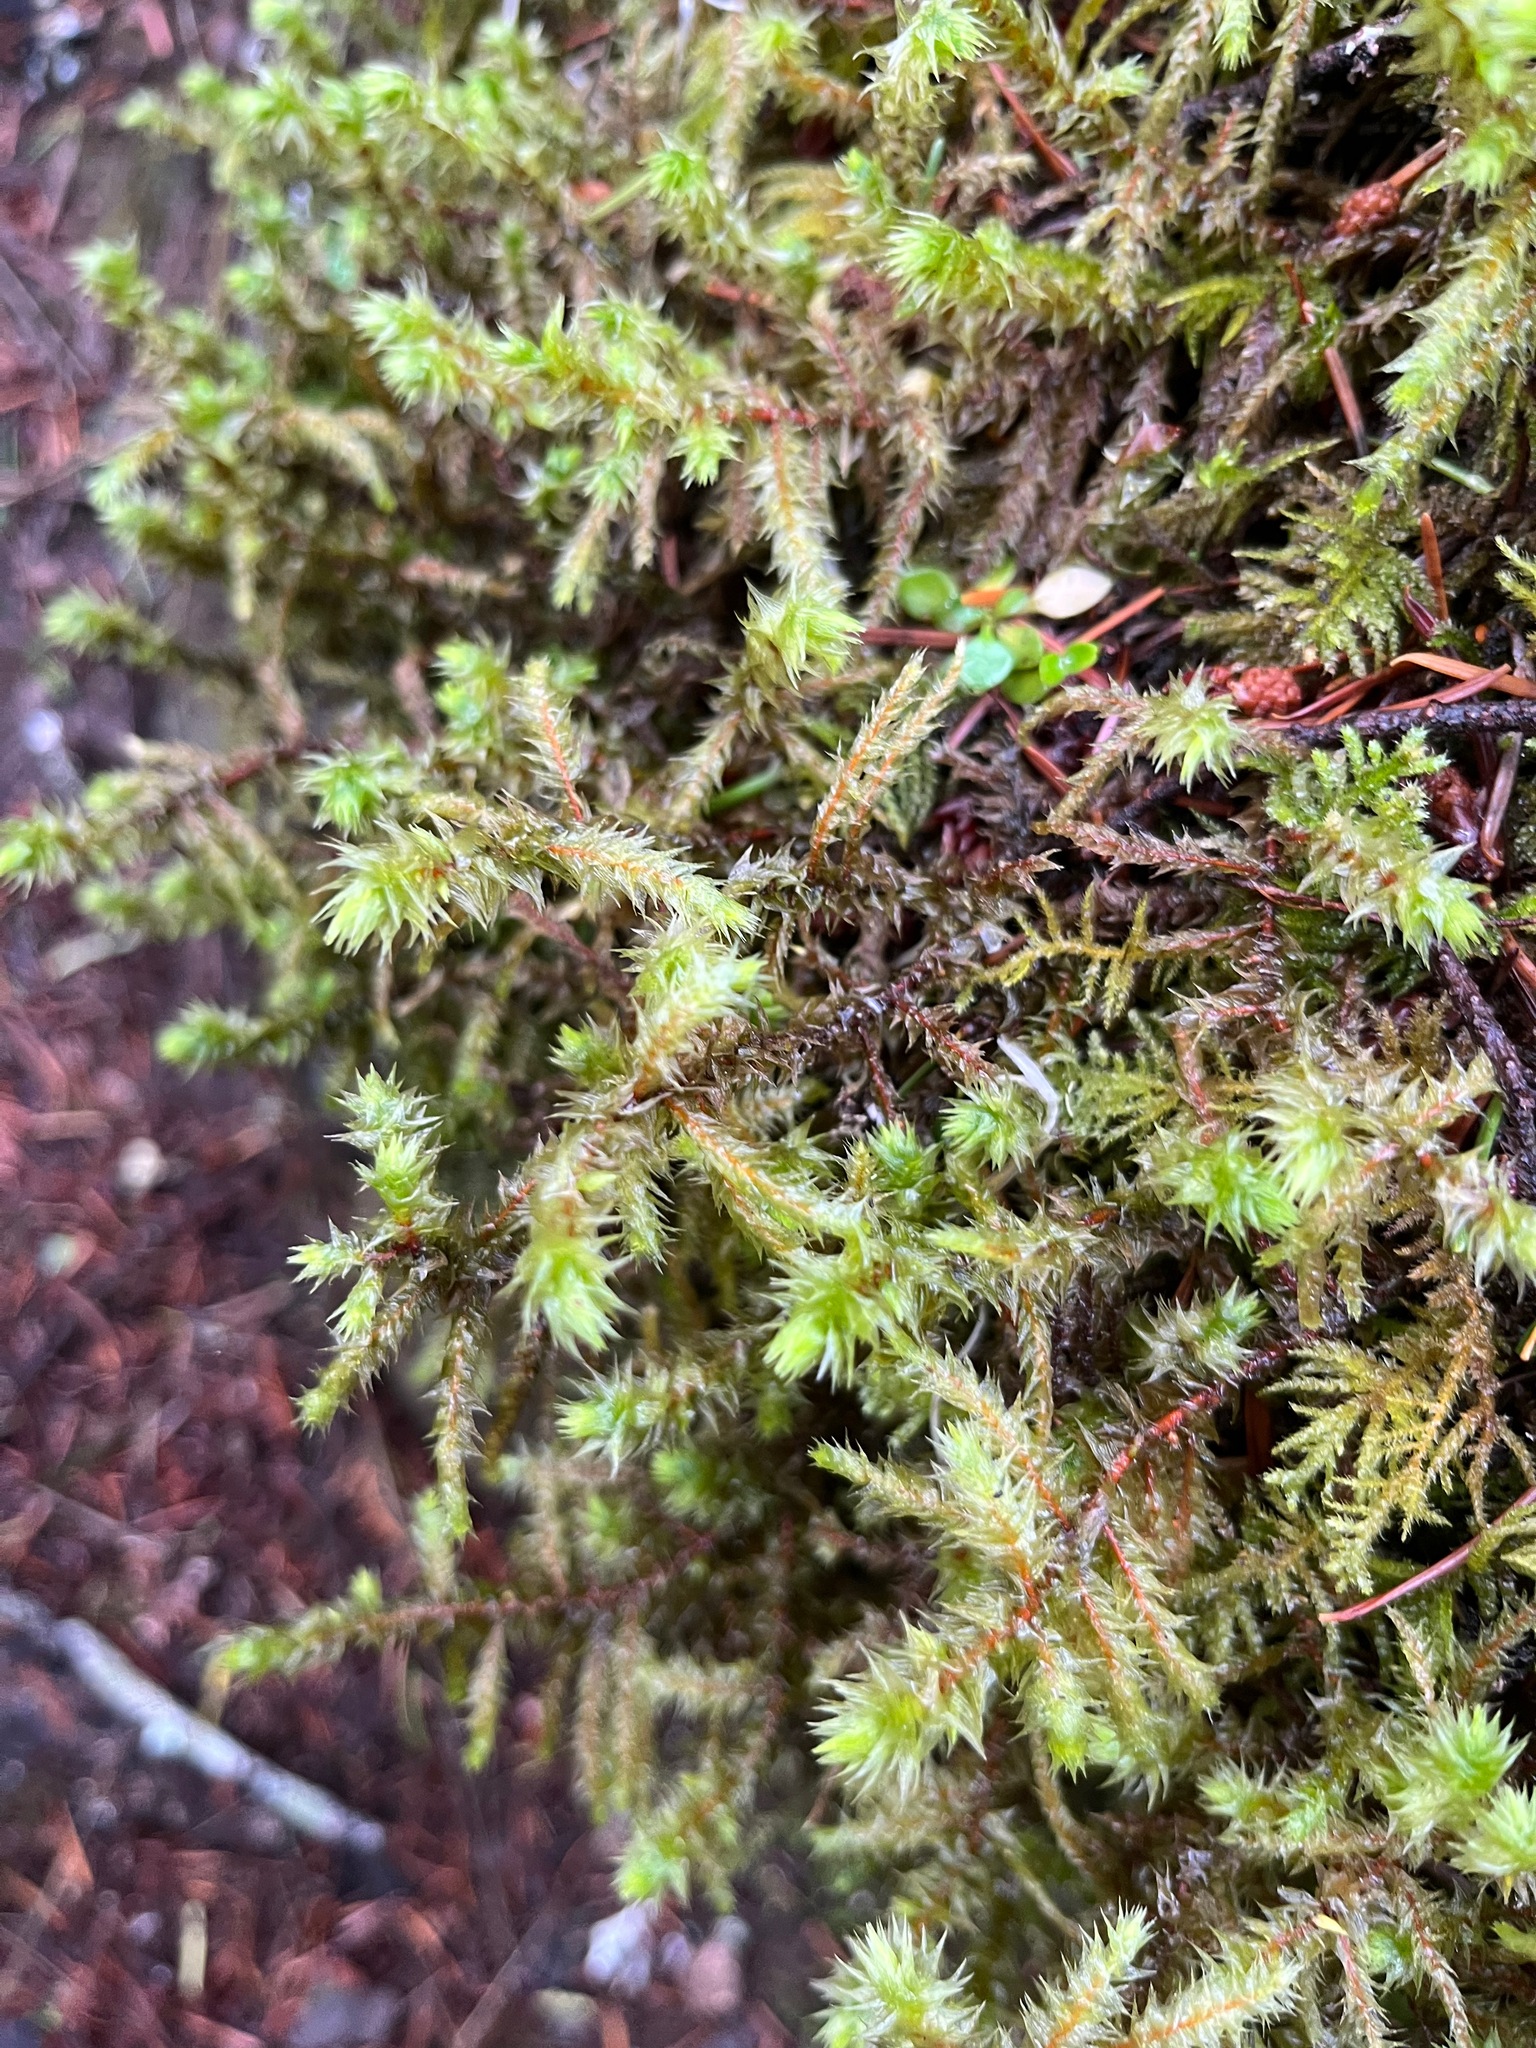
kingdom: Plantae
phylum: Bryophyta
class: Bryopsida
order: Hypnales
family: Hylocomiaceae
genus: Hylocomiadelphus
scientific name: Hylocomiadelphus triquetrus
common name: Rough goose neck moss
